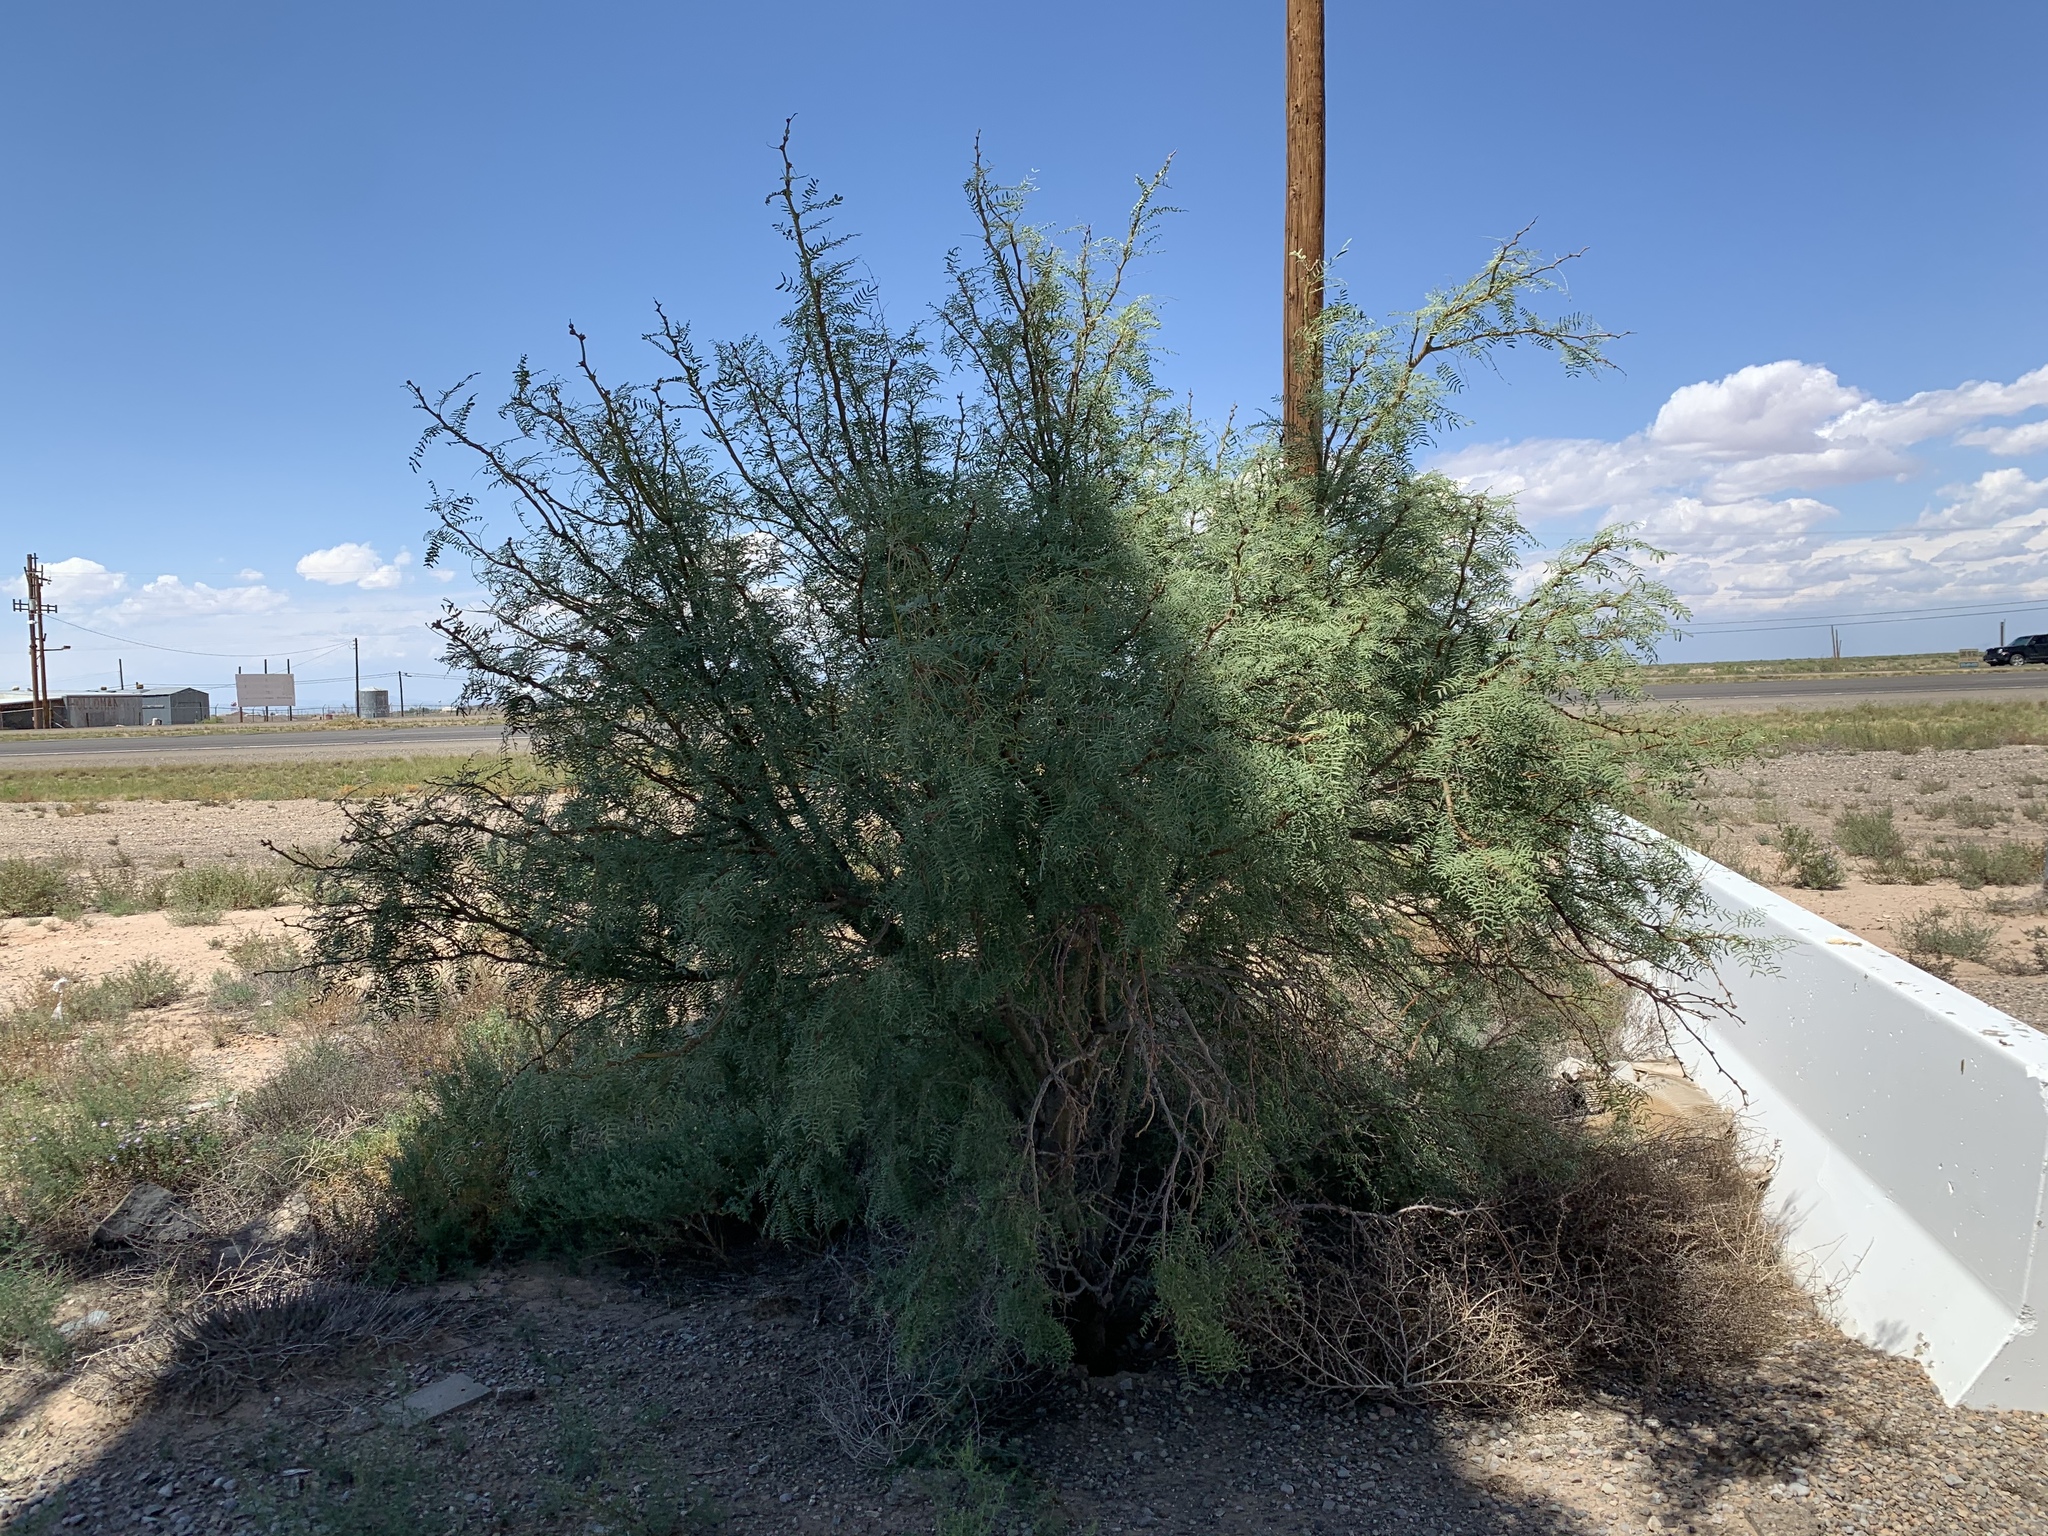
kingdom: Plantae
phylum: Tracheophyta
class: Magnoliopsida
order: Fabales
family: Fabaceae
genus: Prosopis
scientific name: Prosopis glandulosa
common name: Honey mesquite
